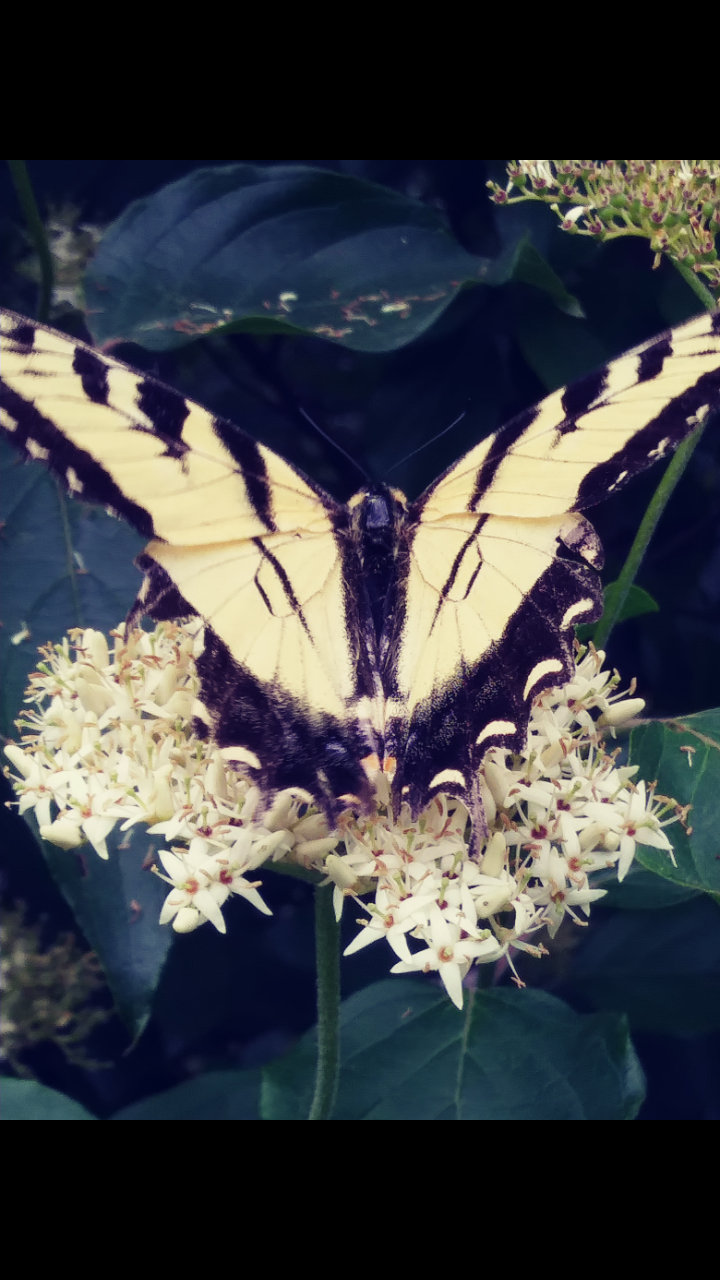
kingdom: Animalia
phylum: Arthropoda
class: Insecta
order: Lepidoptera
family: Papilionidae
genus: Papilio
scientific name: Papilio glaucus
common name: Tiger swallowtail
